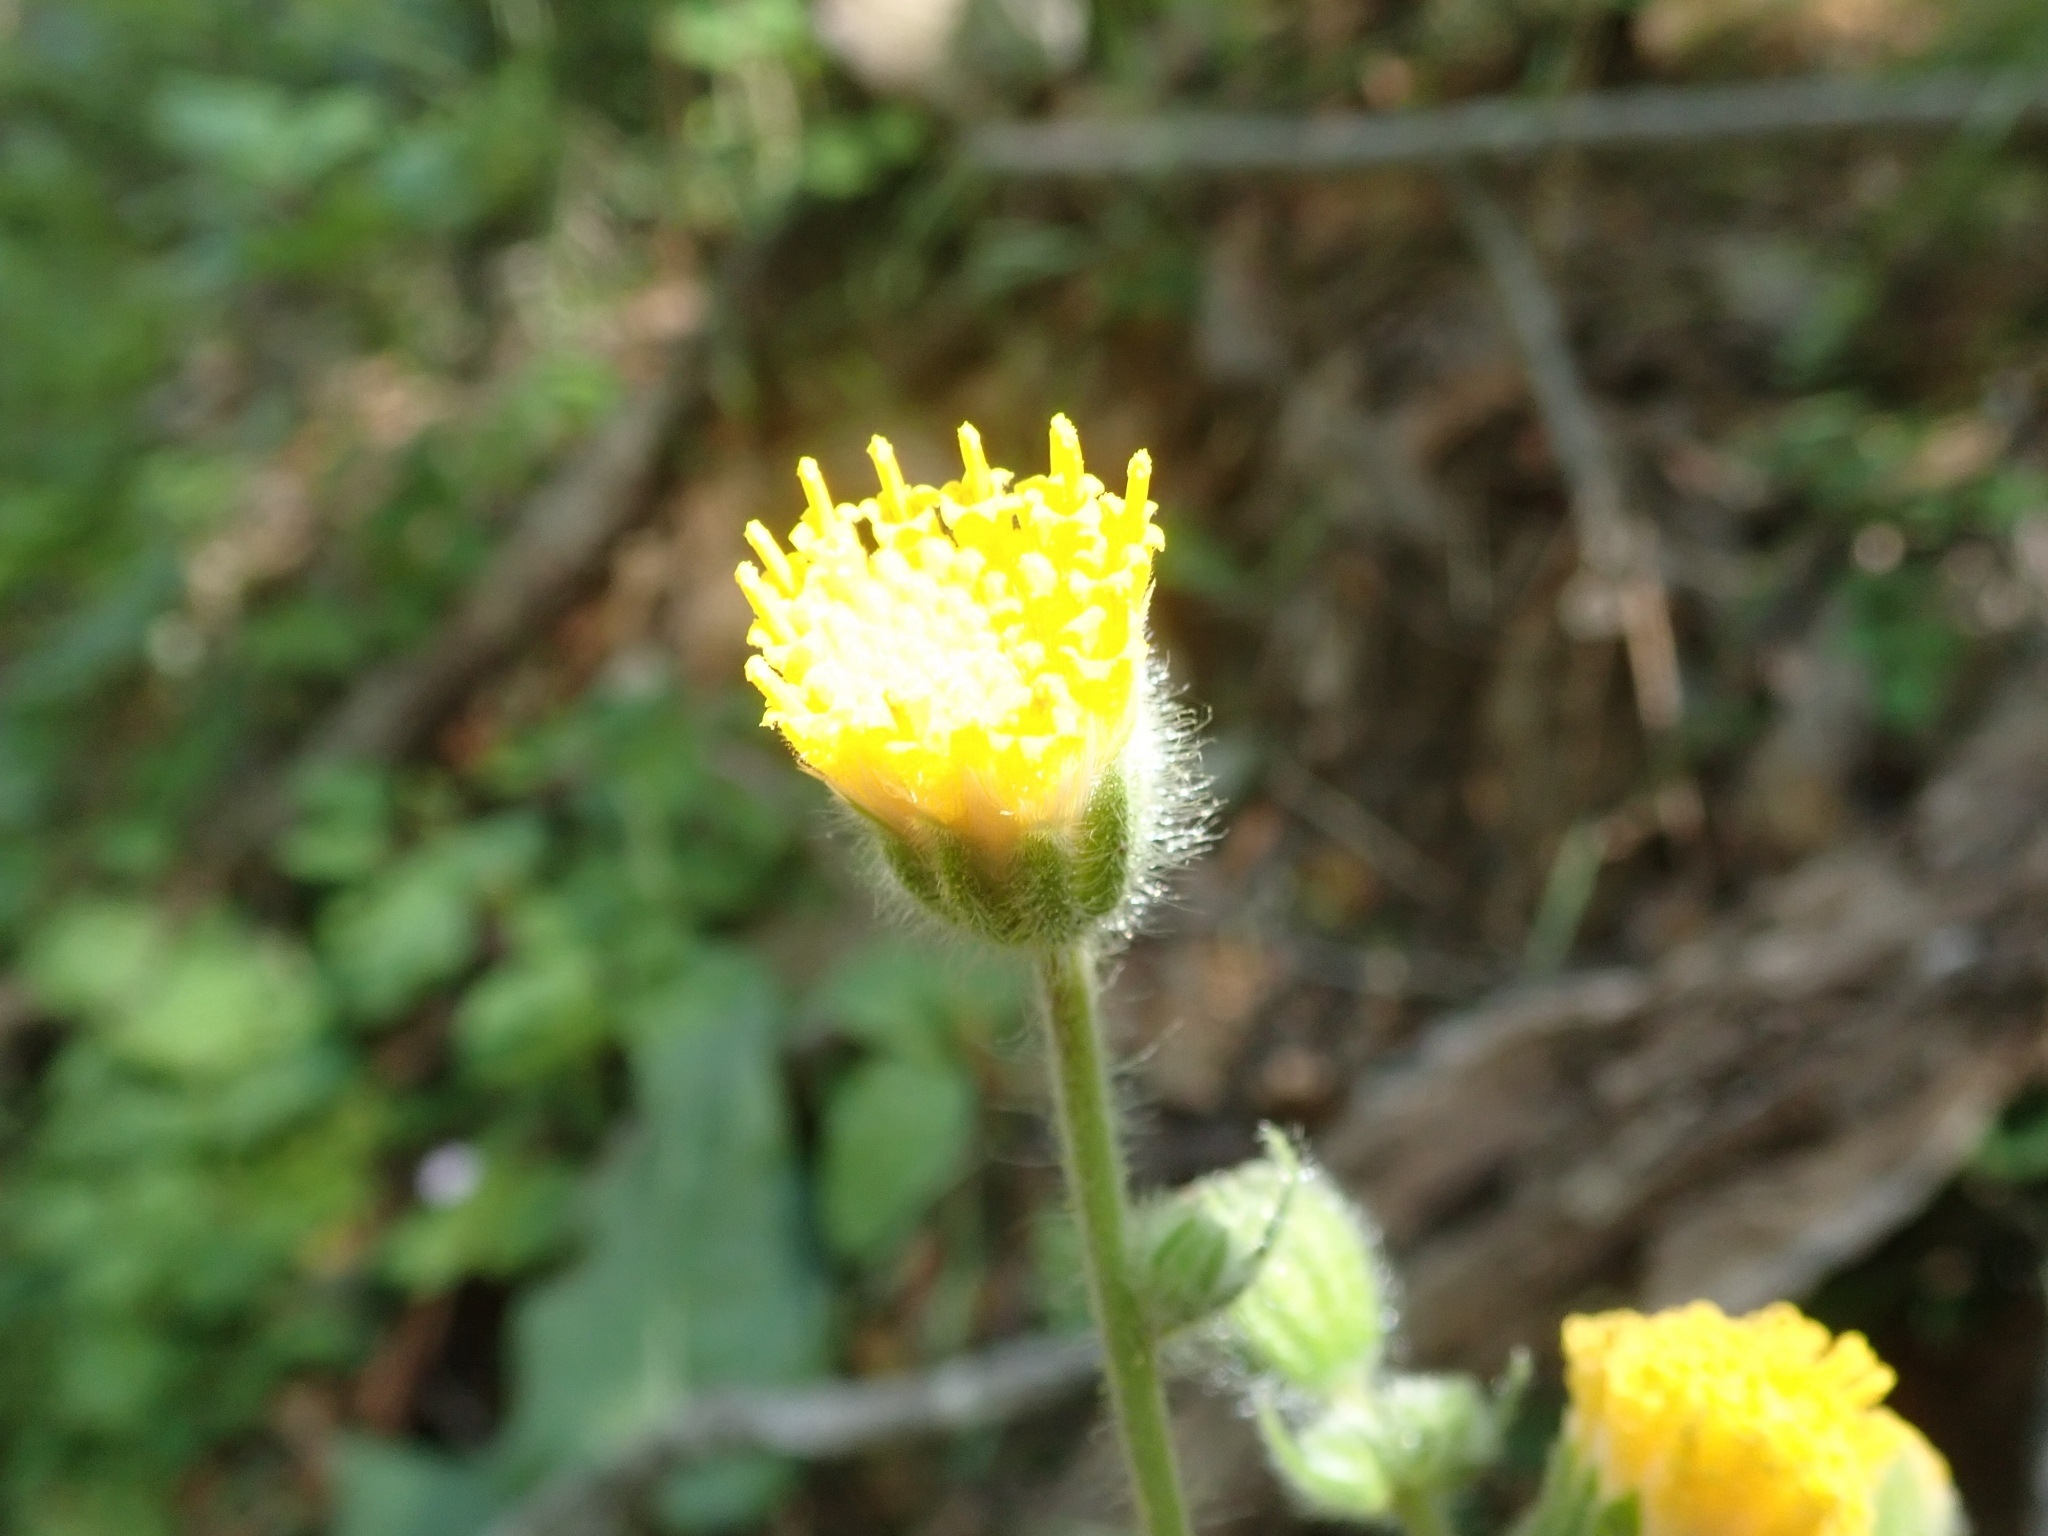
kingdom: Plantae
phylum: Tracheophyta
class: Magnoliopsida
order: Asterales
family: Asteraceae
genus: Arnica
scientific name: Arnica discoidea
